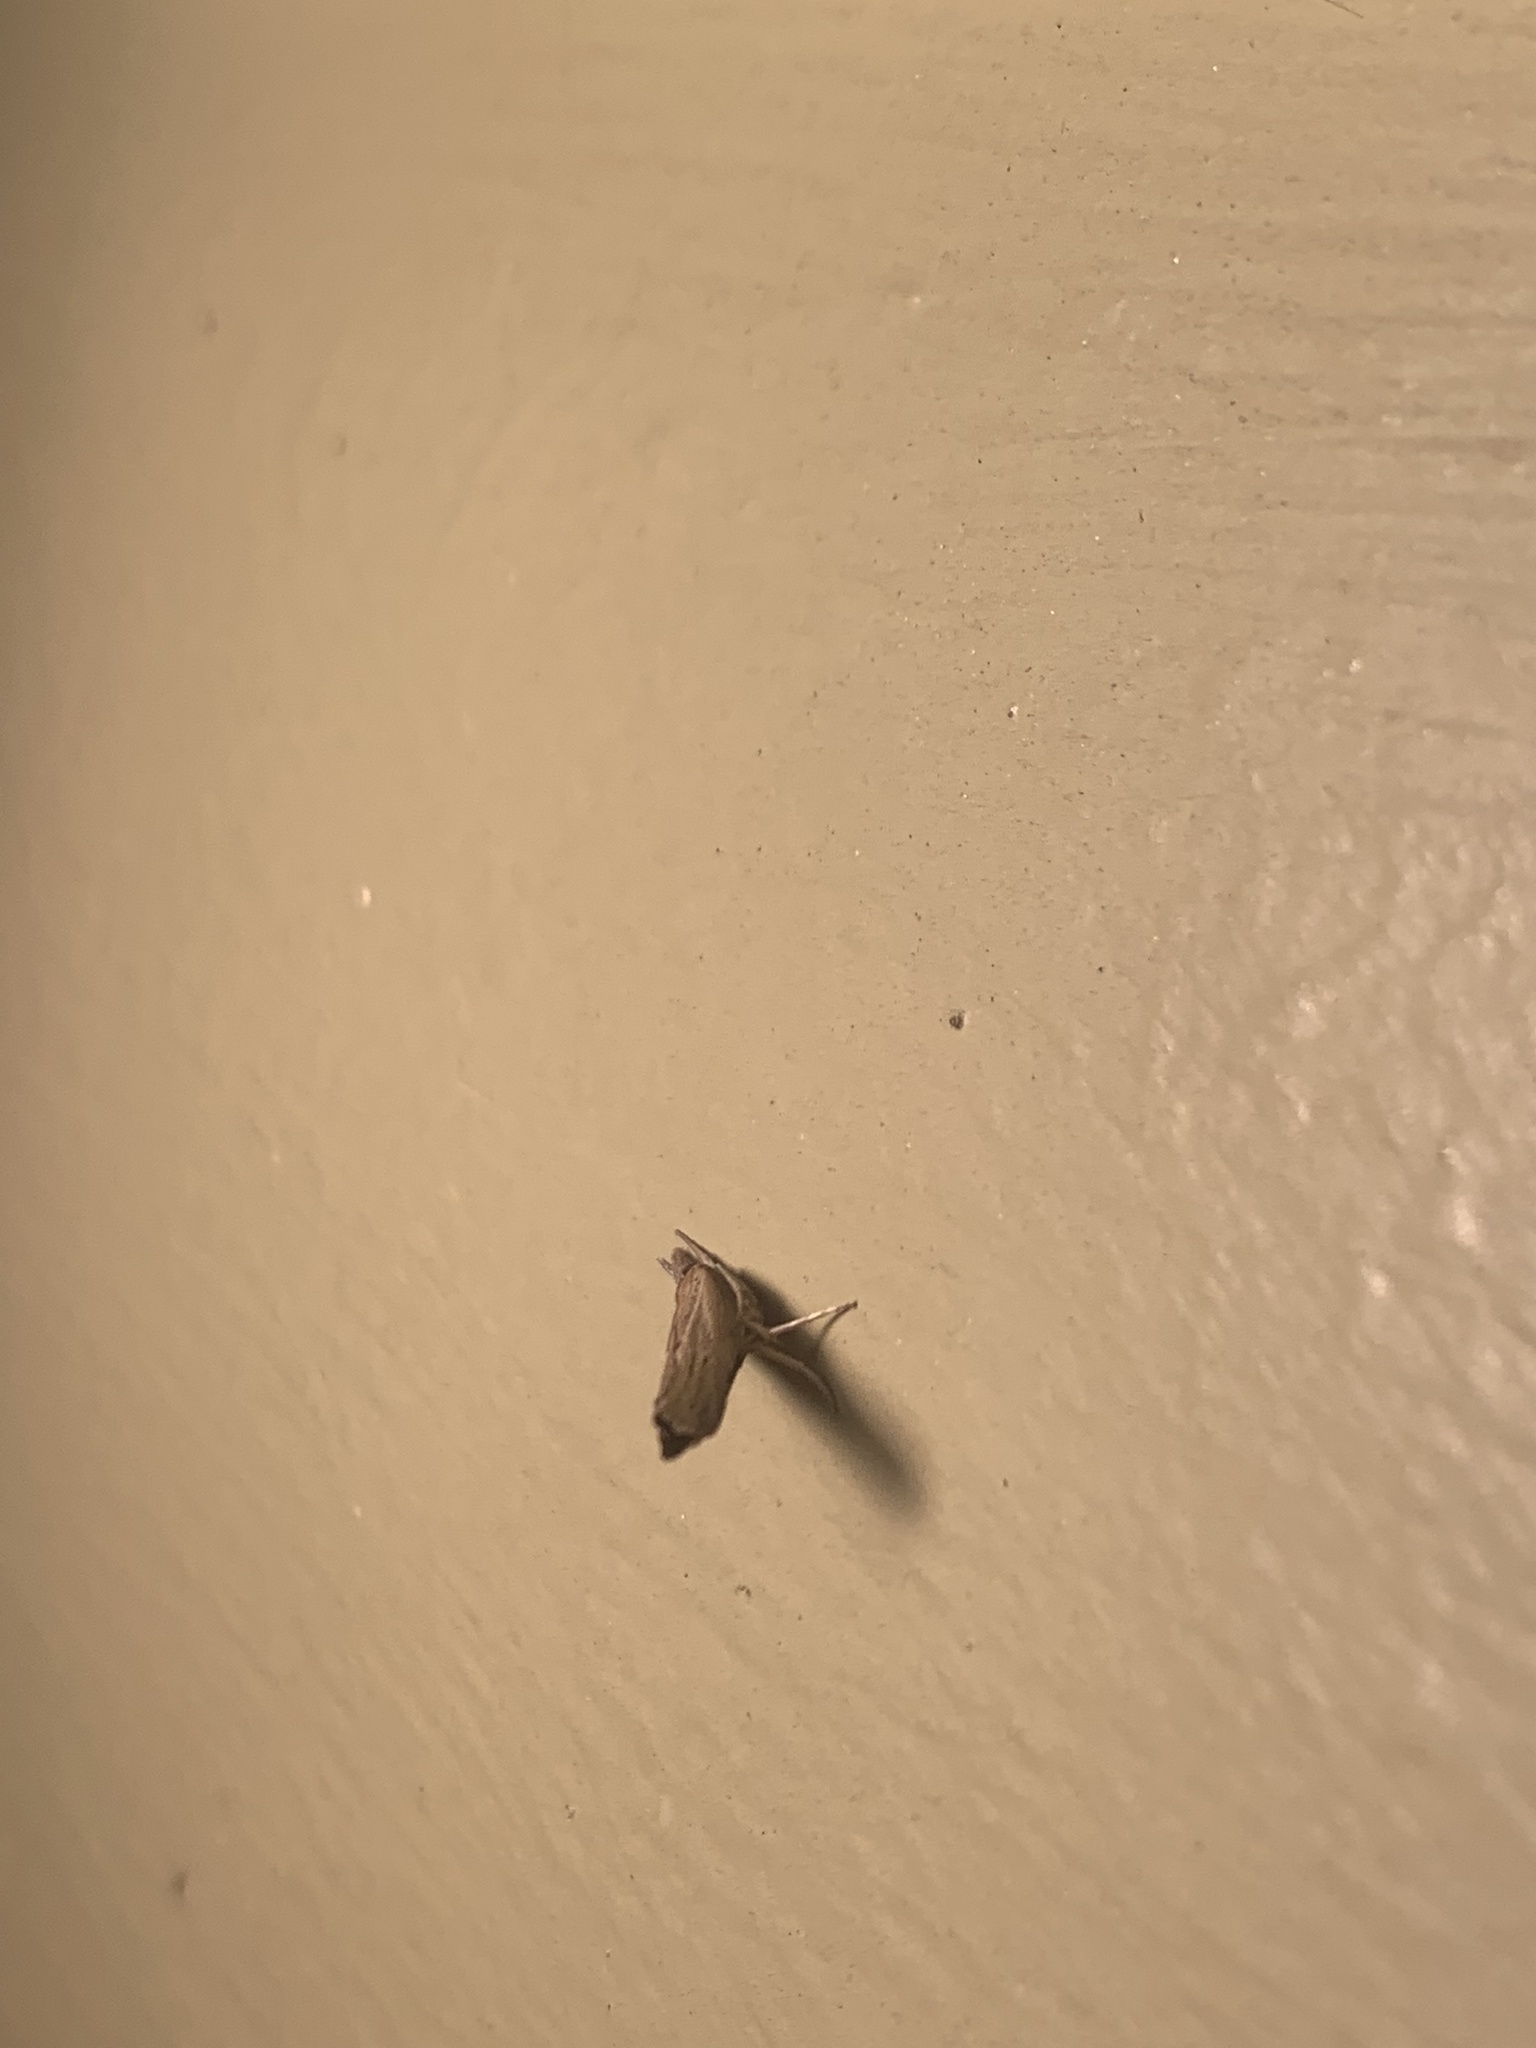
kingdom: Animalia
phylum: Arthropoda
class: Insecta
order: Lepidoptera
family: Crambidae
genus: Fissicrambus
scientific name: Fissicrambus mutabilis
